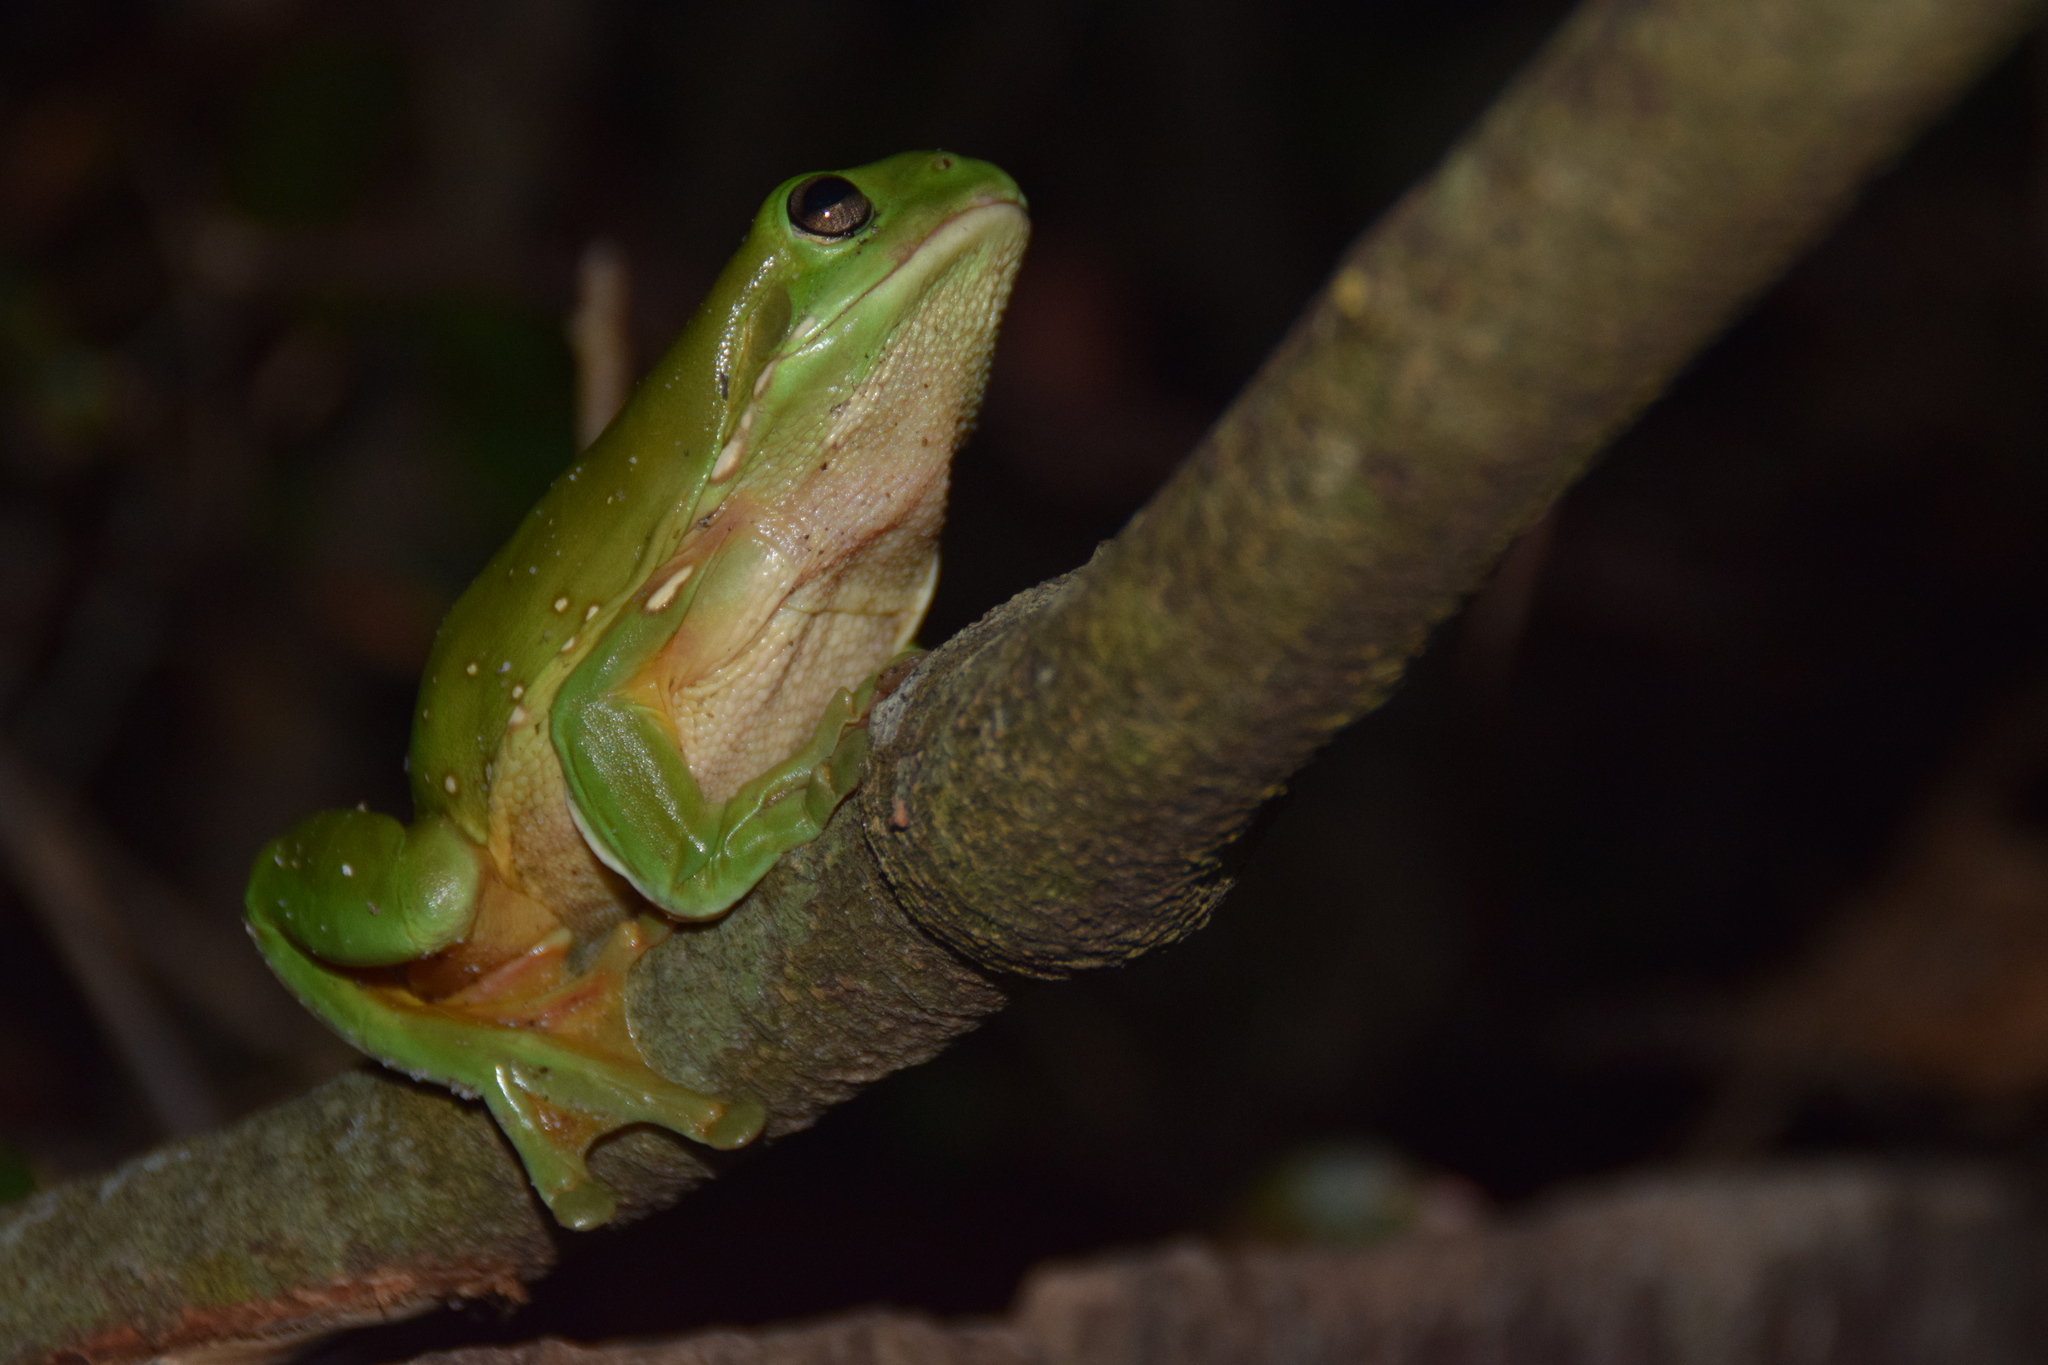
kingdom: Animalia
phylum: Chordata
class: Amphibia
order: Anura
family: Pelodryadidae
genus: Ranoidea
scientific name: Ranoidea caerulea
